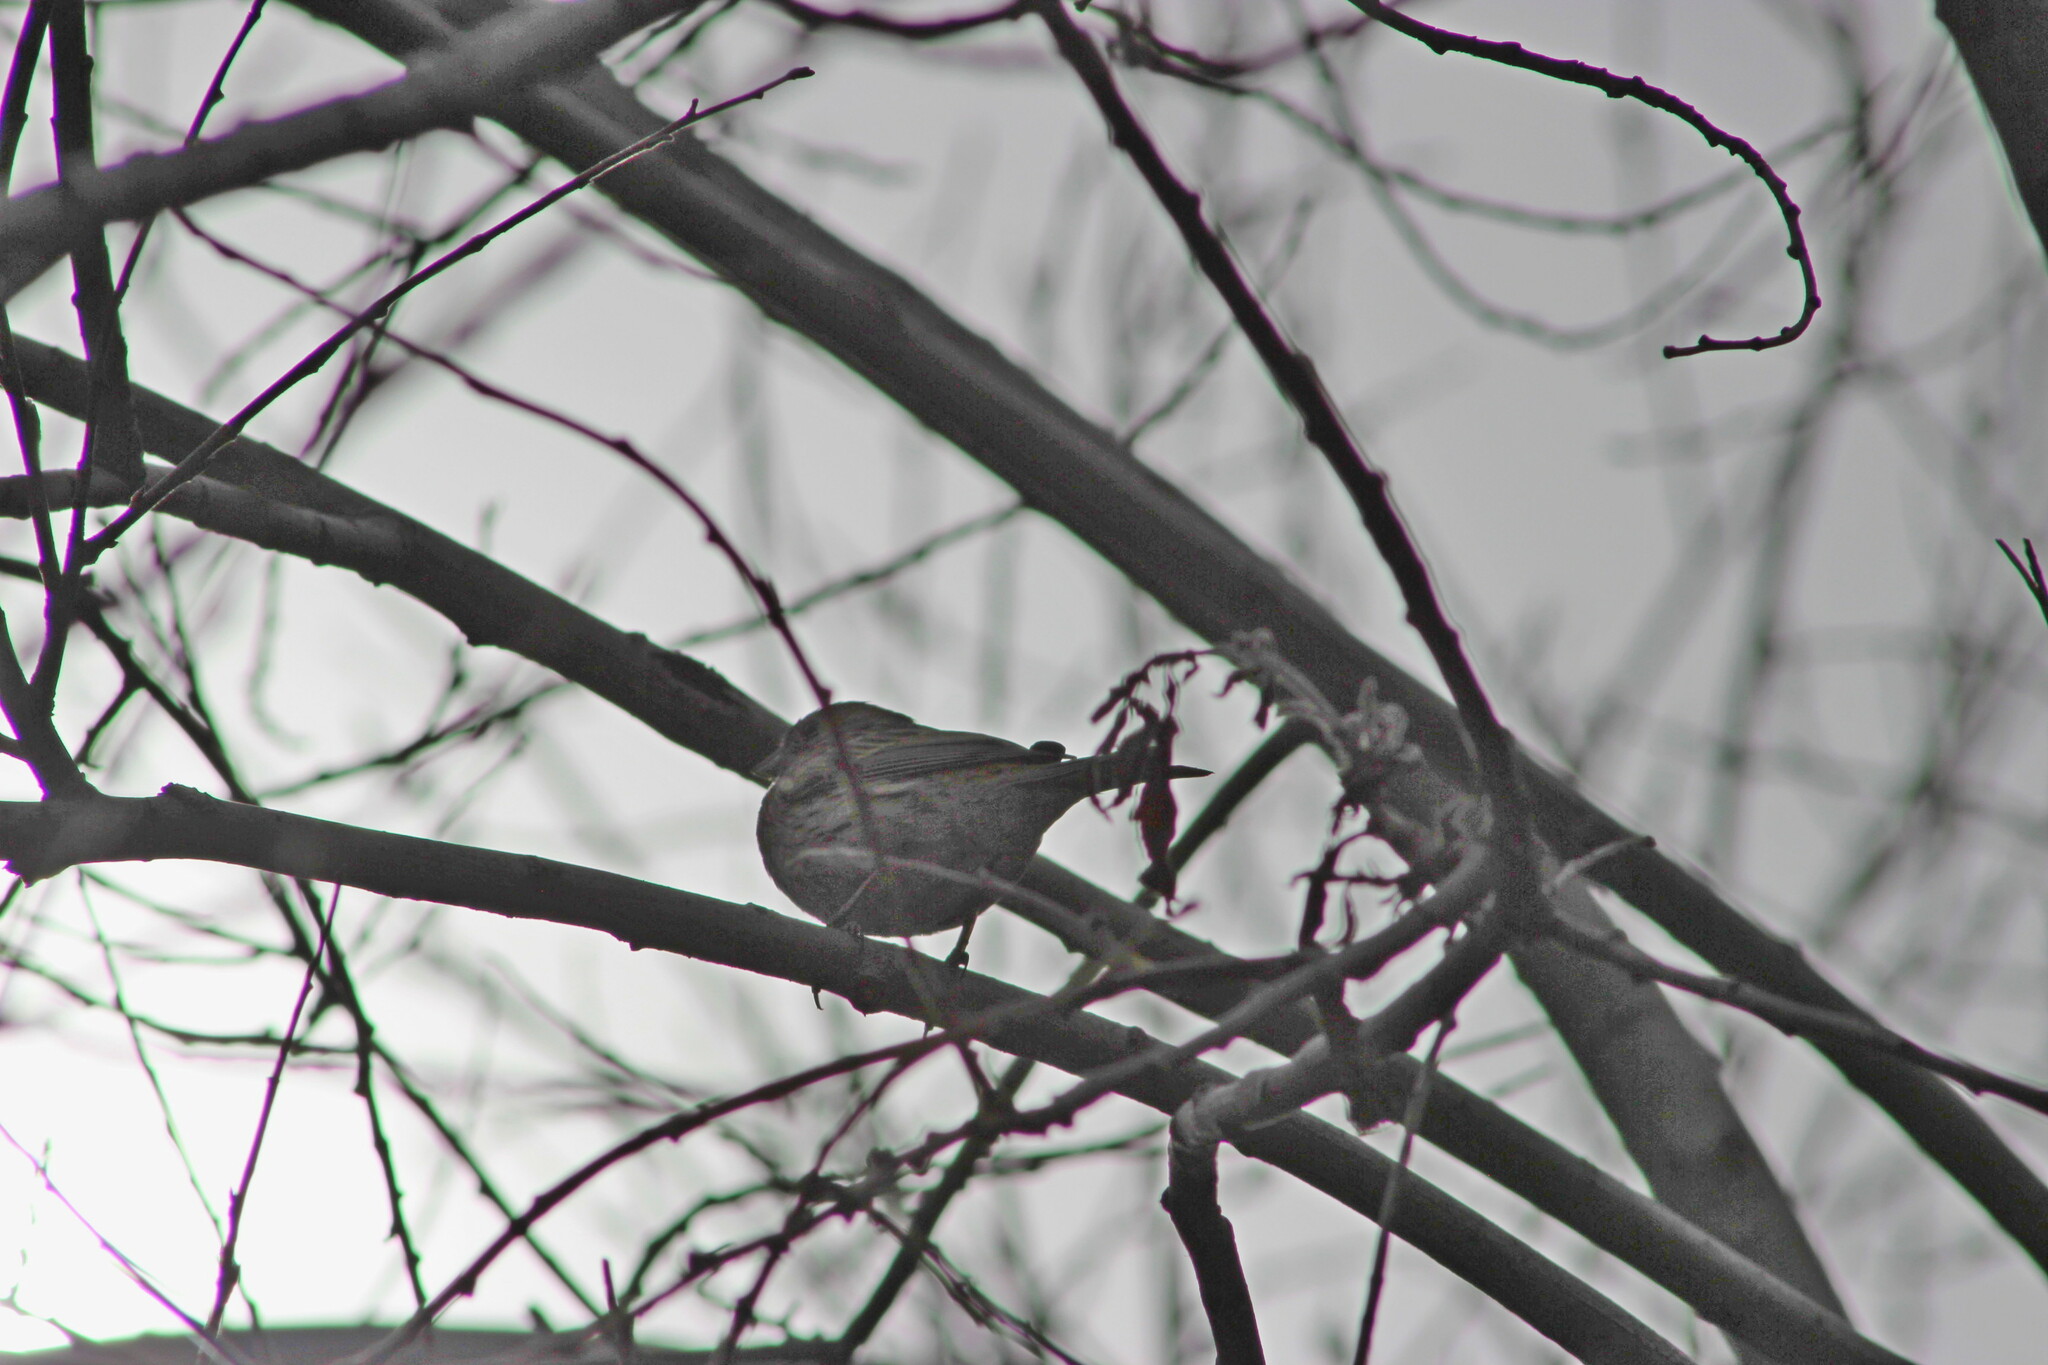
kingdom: Animalia
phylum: Chordata
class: Aves
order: Passeriformes
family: Emberizidae
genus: Emberiza
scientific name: Emberiza leucocephalos
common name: Pine bunting
